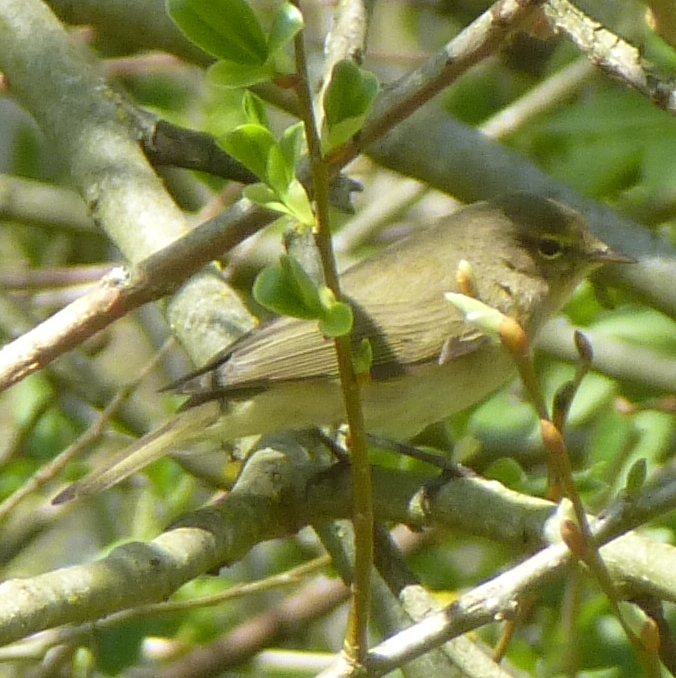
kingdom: Animalia
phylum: Chordata
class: Aves
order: Passeriformes
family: Phylloscopidae
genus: Phylloscopus
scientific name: Phylloscopus collybita
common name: Common chiffchaff
